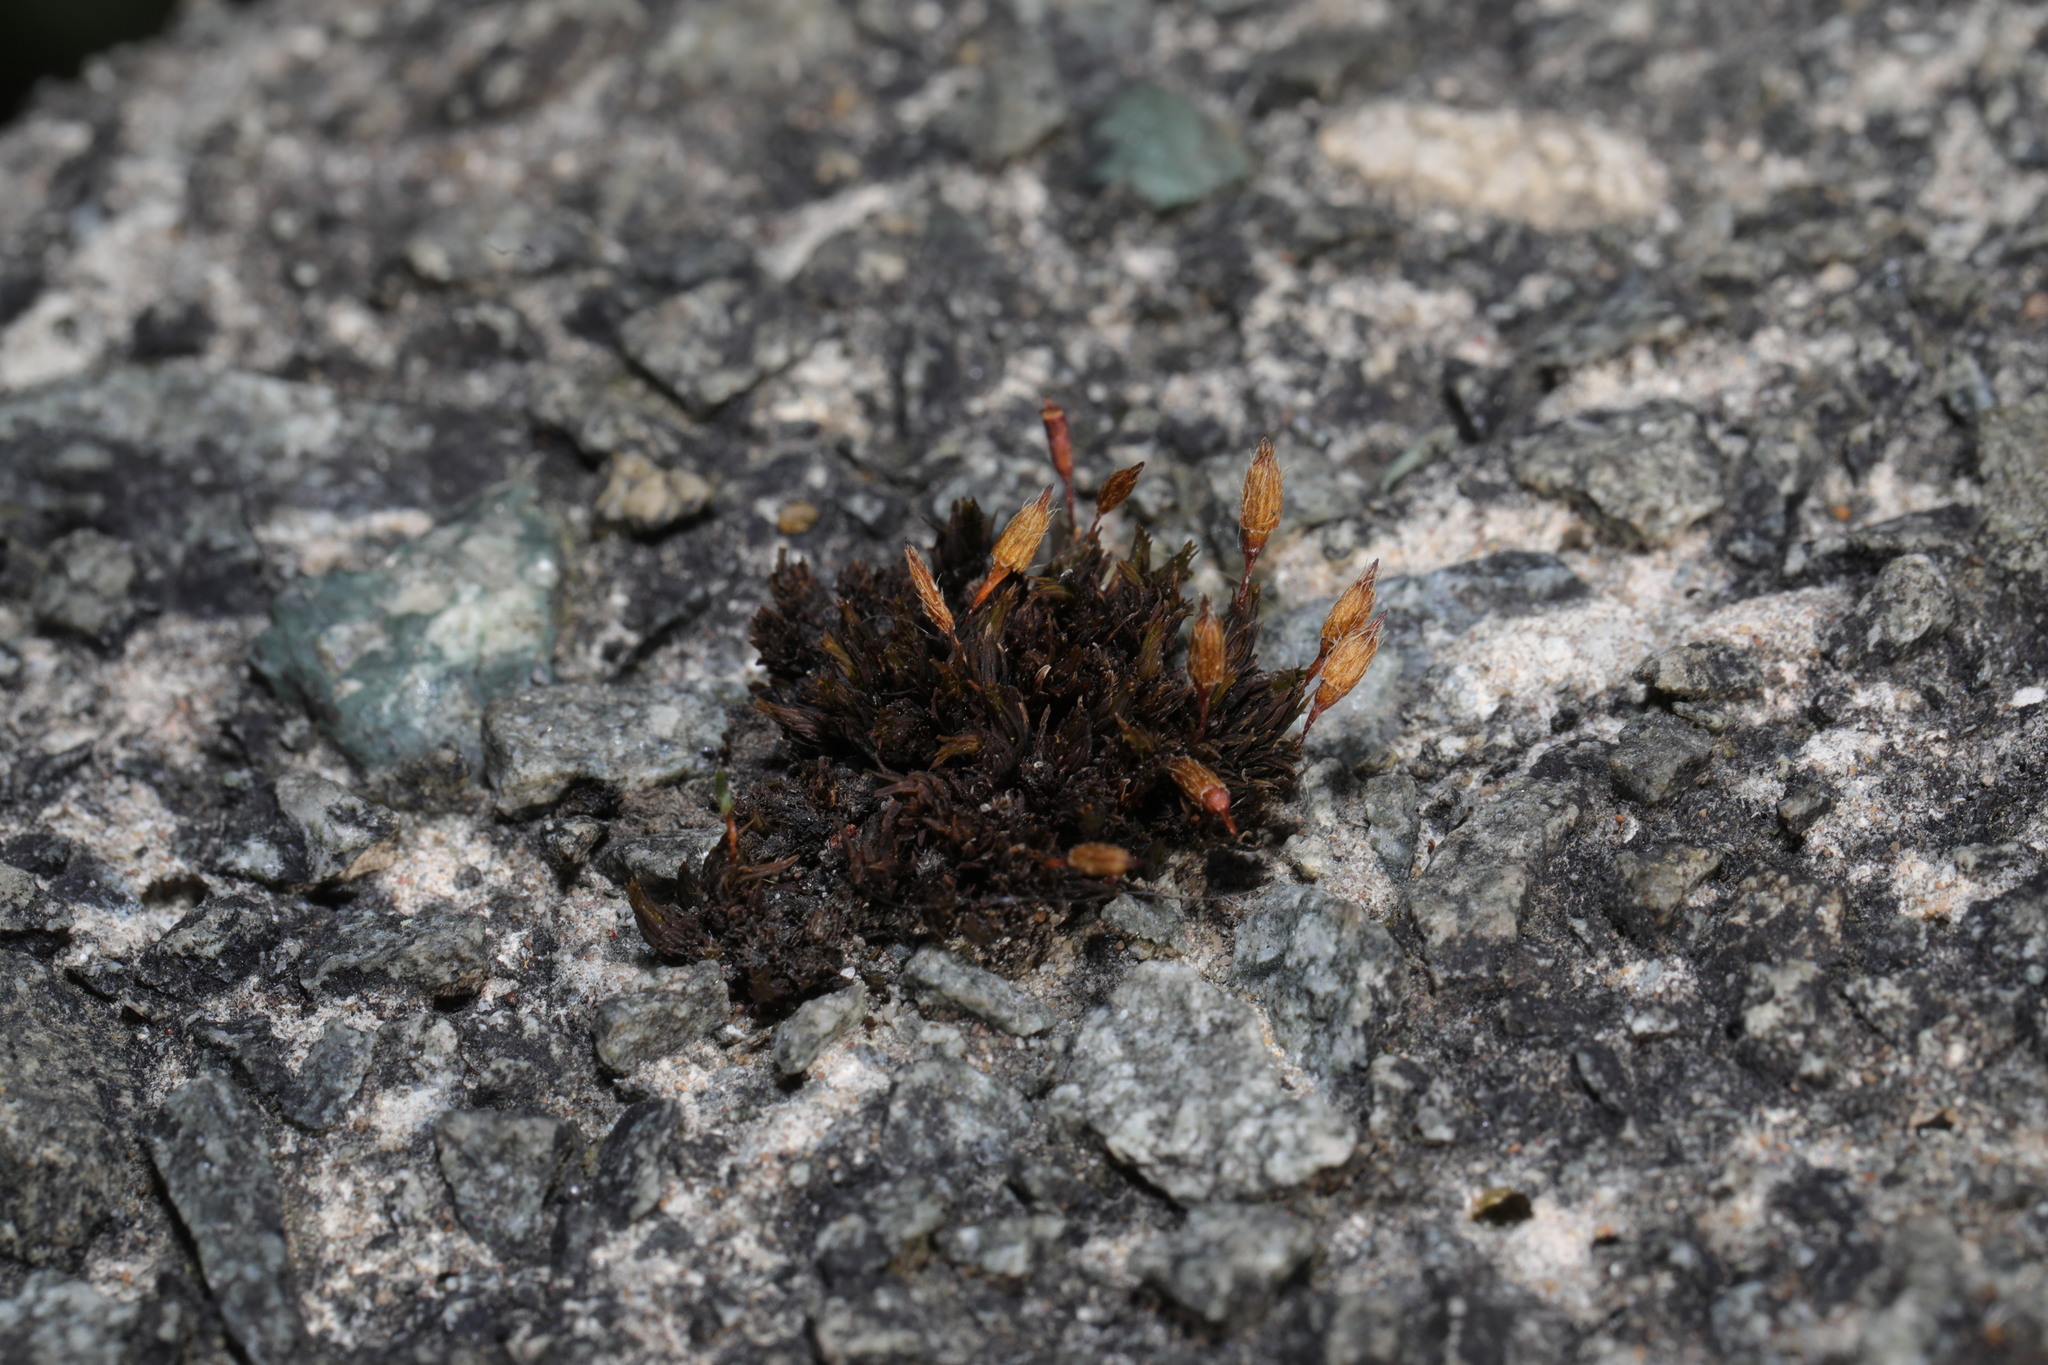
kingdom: Plantae
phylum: Bryophyta
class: Bryopsida
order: Orthotrichales
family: Orthotrichaceae
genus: Orthotrichum
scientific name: Orthotrichum anomalum
